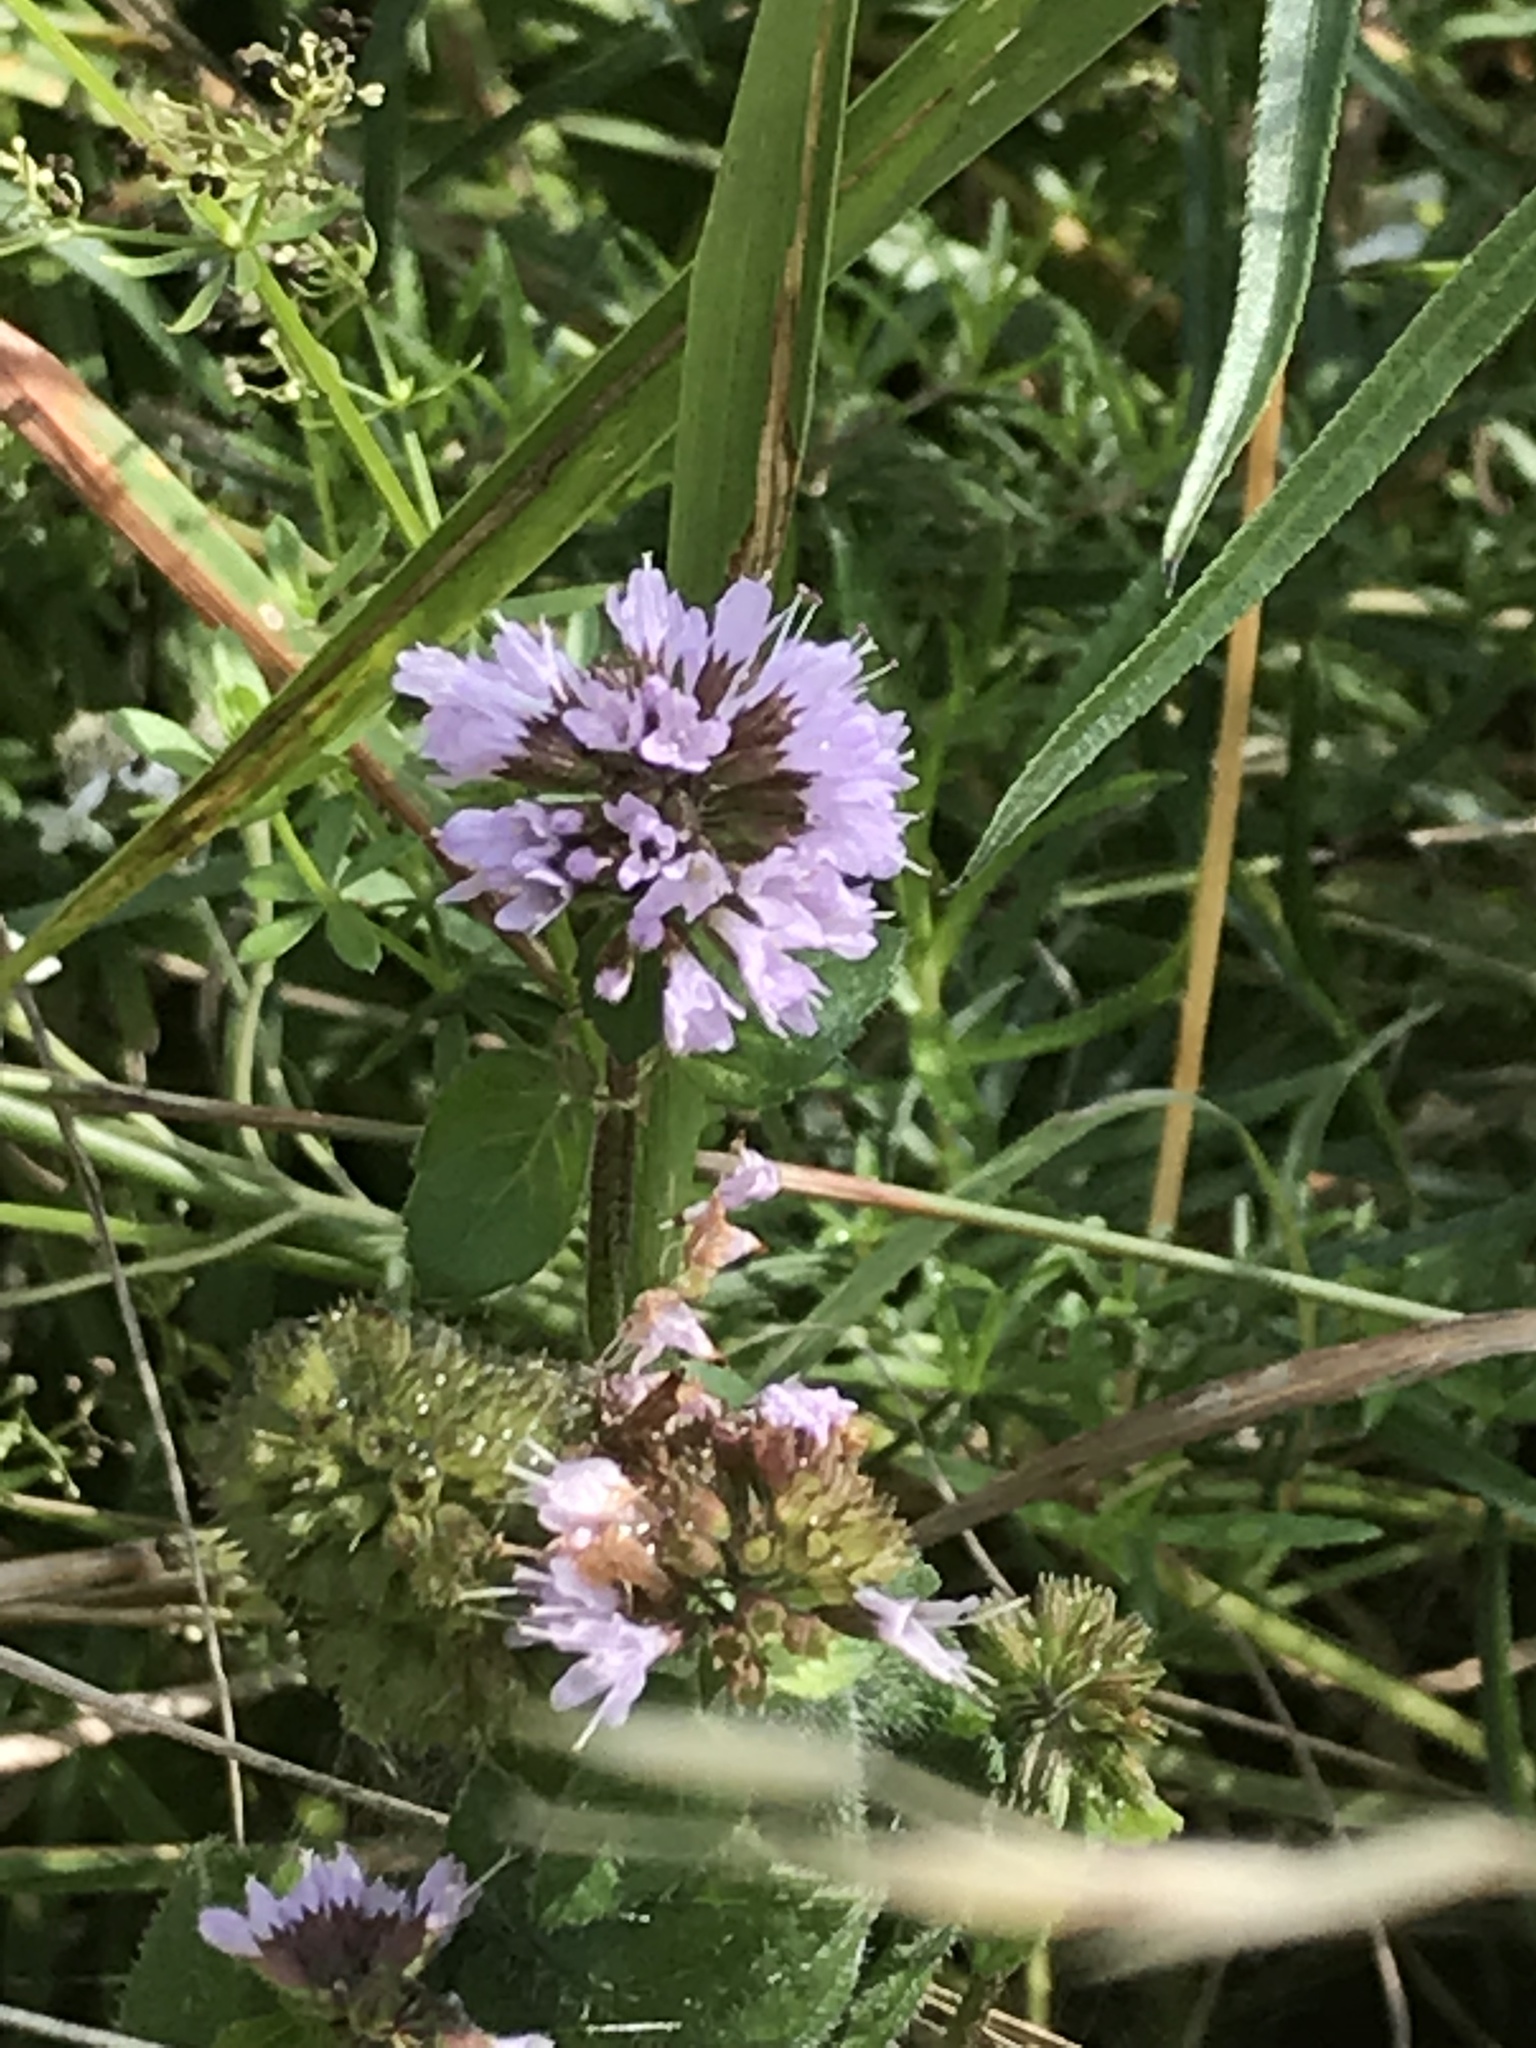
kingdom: Plantae
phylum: Tracheophyta
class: Magnoliopsida
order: Lamiales
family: Lamiaceae
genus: Mentha
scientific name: Mentha aquatica
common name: Water mint
